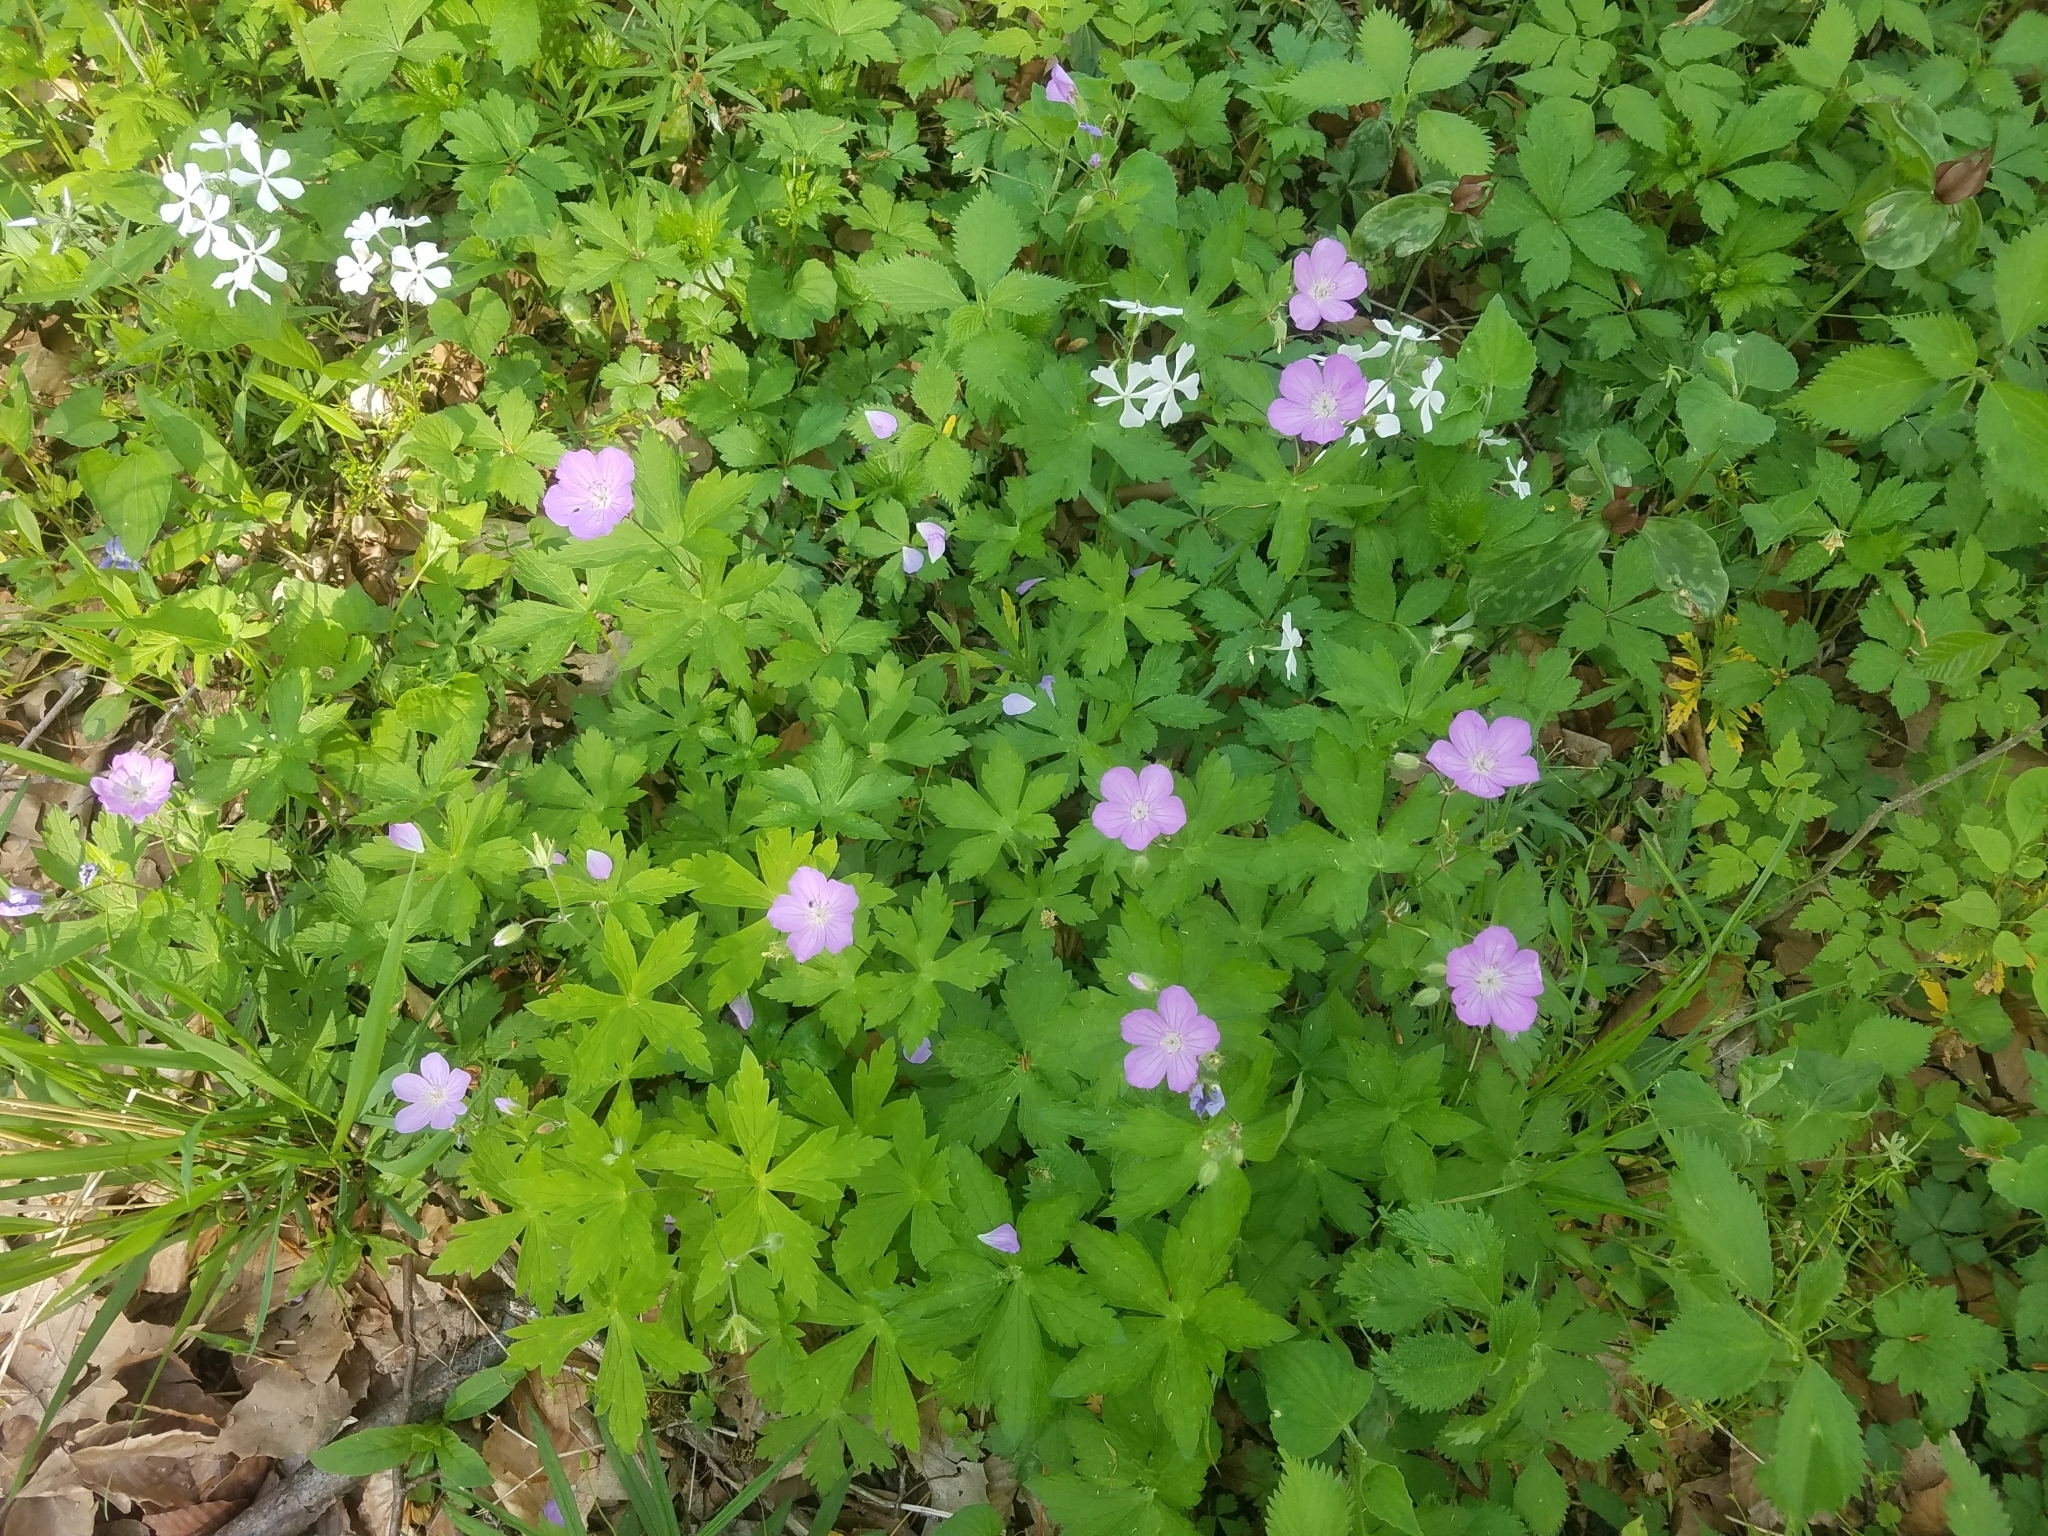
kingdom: Plantae
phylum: Tracheophyta
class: Magnoliopsida
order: Geraniales
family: Geraniaceae
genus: Geranium
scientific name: Geranium maculatum
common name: Spotted geranium
